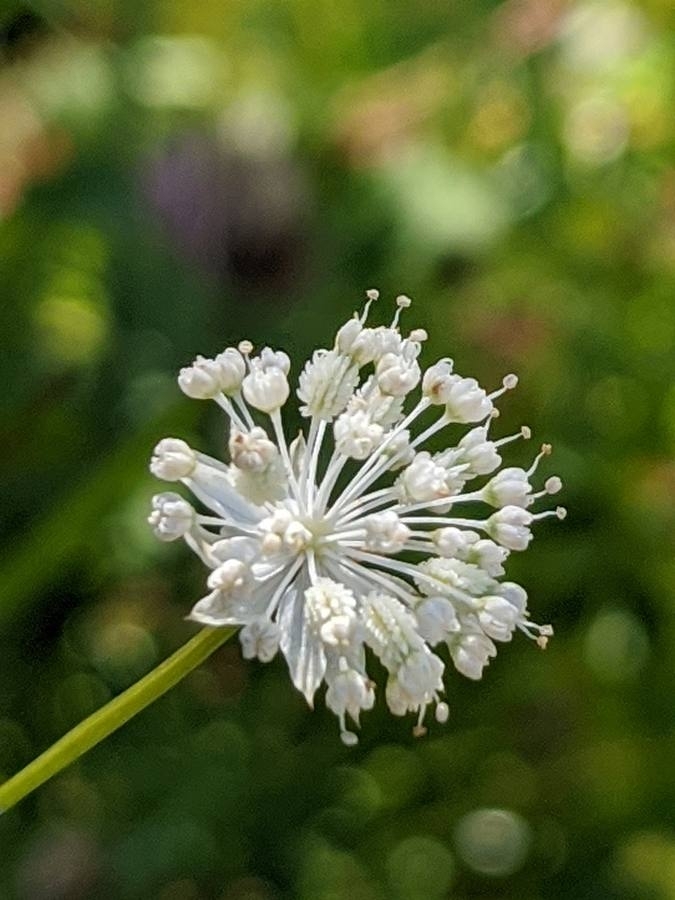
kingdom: Plantae
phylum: Tracheophyta
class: Magnoliopsida
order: Apiales
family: Apiaceae
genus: Astrantia
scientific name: Astrantia minor
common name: Lesser masterwort
